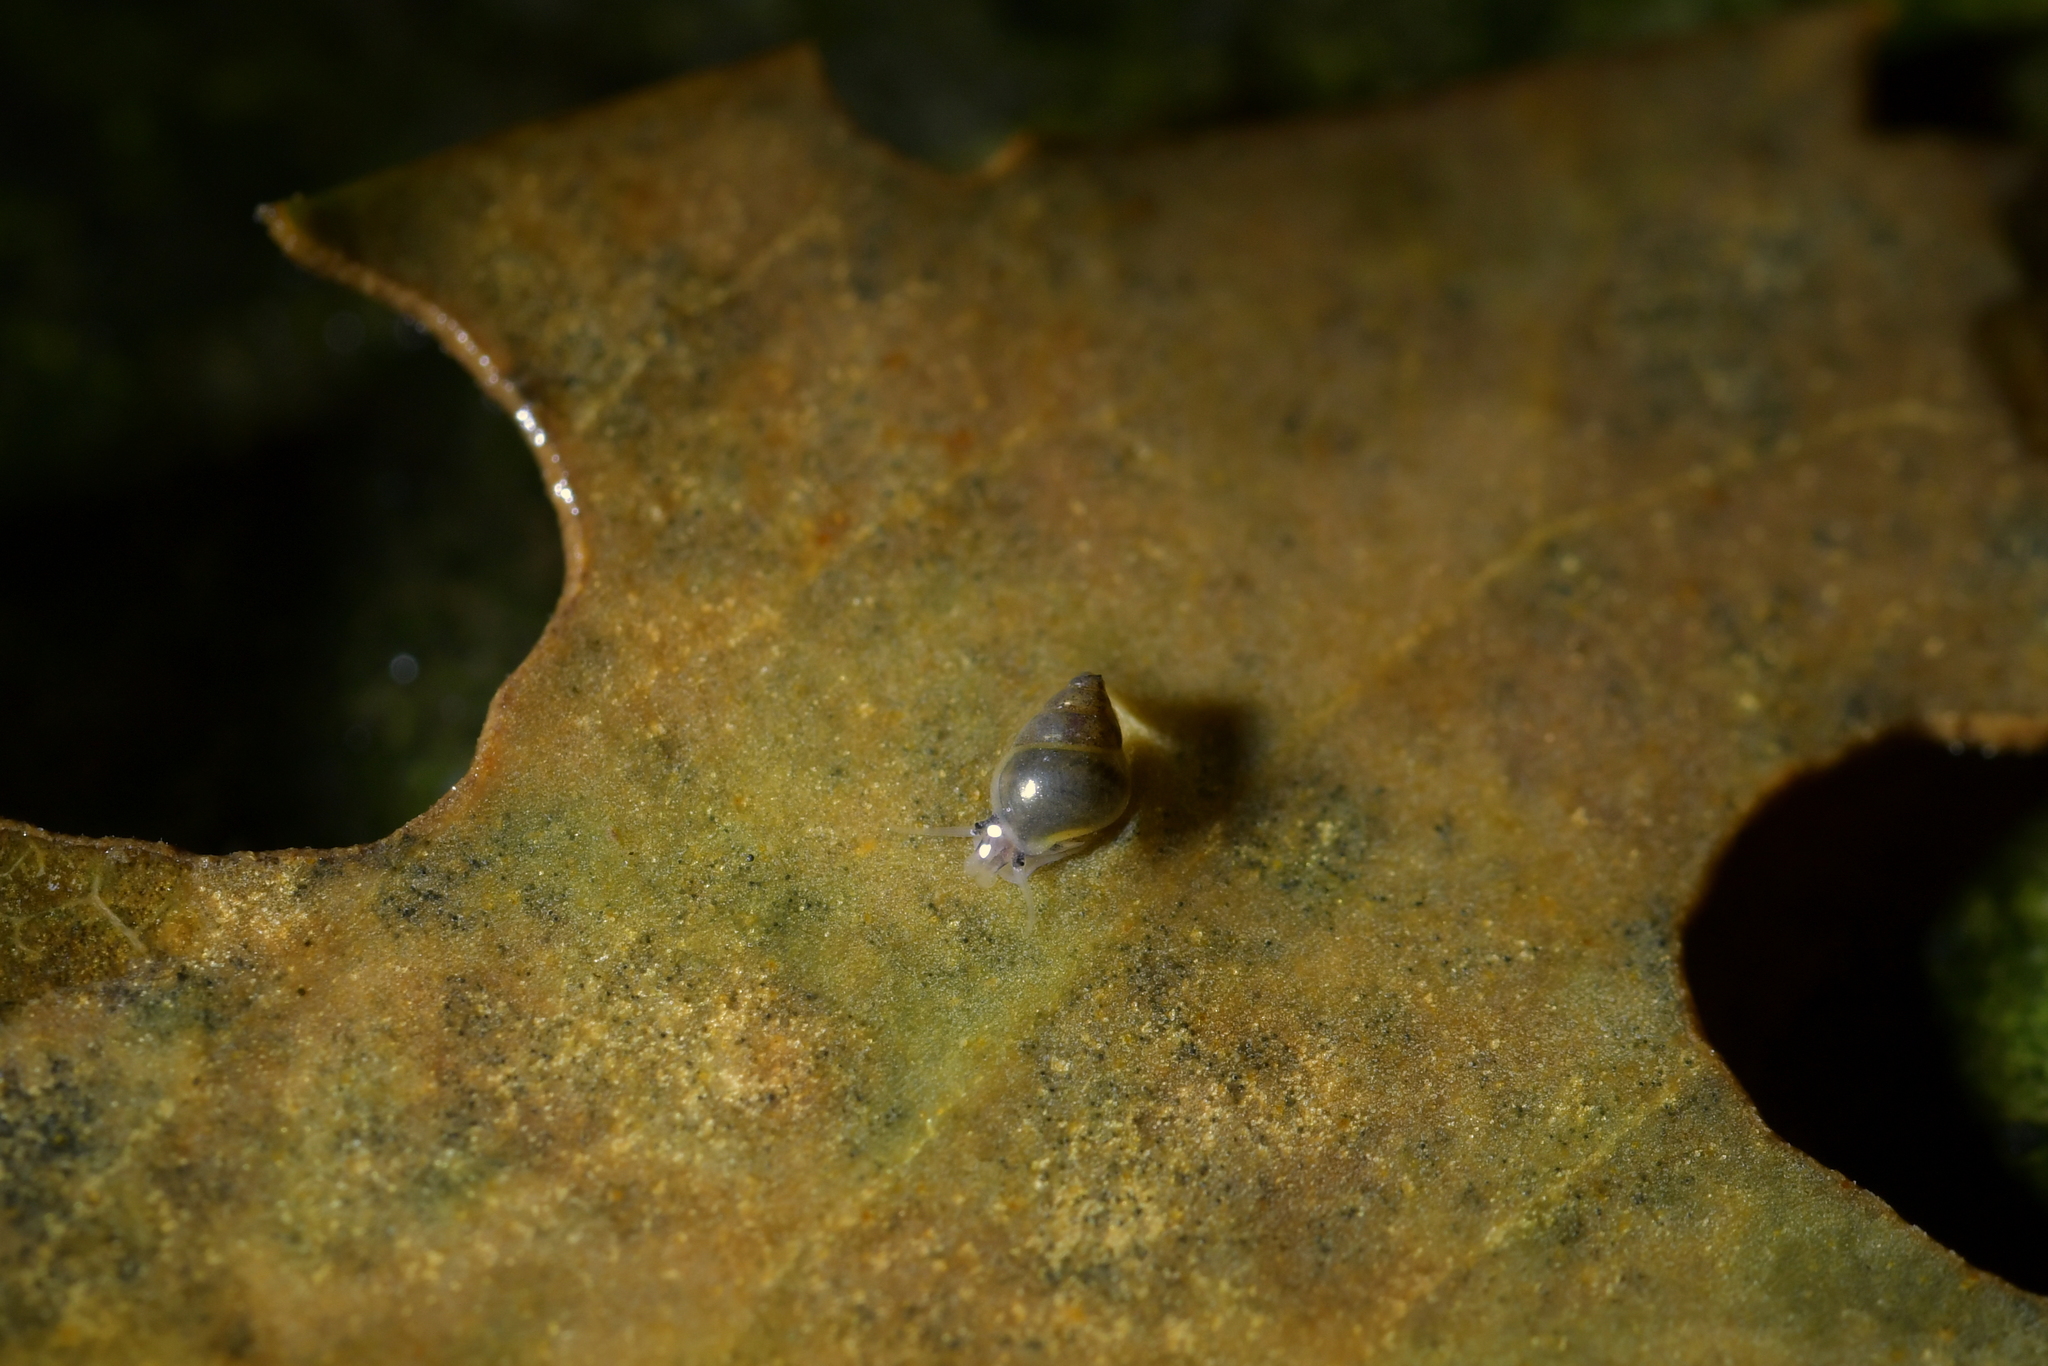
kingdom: Animalia
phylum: Mollusca
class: Gastropoda
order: Littorinimorpha
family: Tateidae
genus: Potamopyrgus
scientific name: Potamopyrgus antipodarum
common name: Jenkins' spire snail
